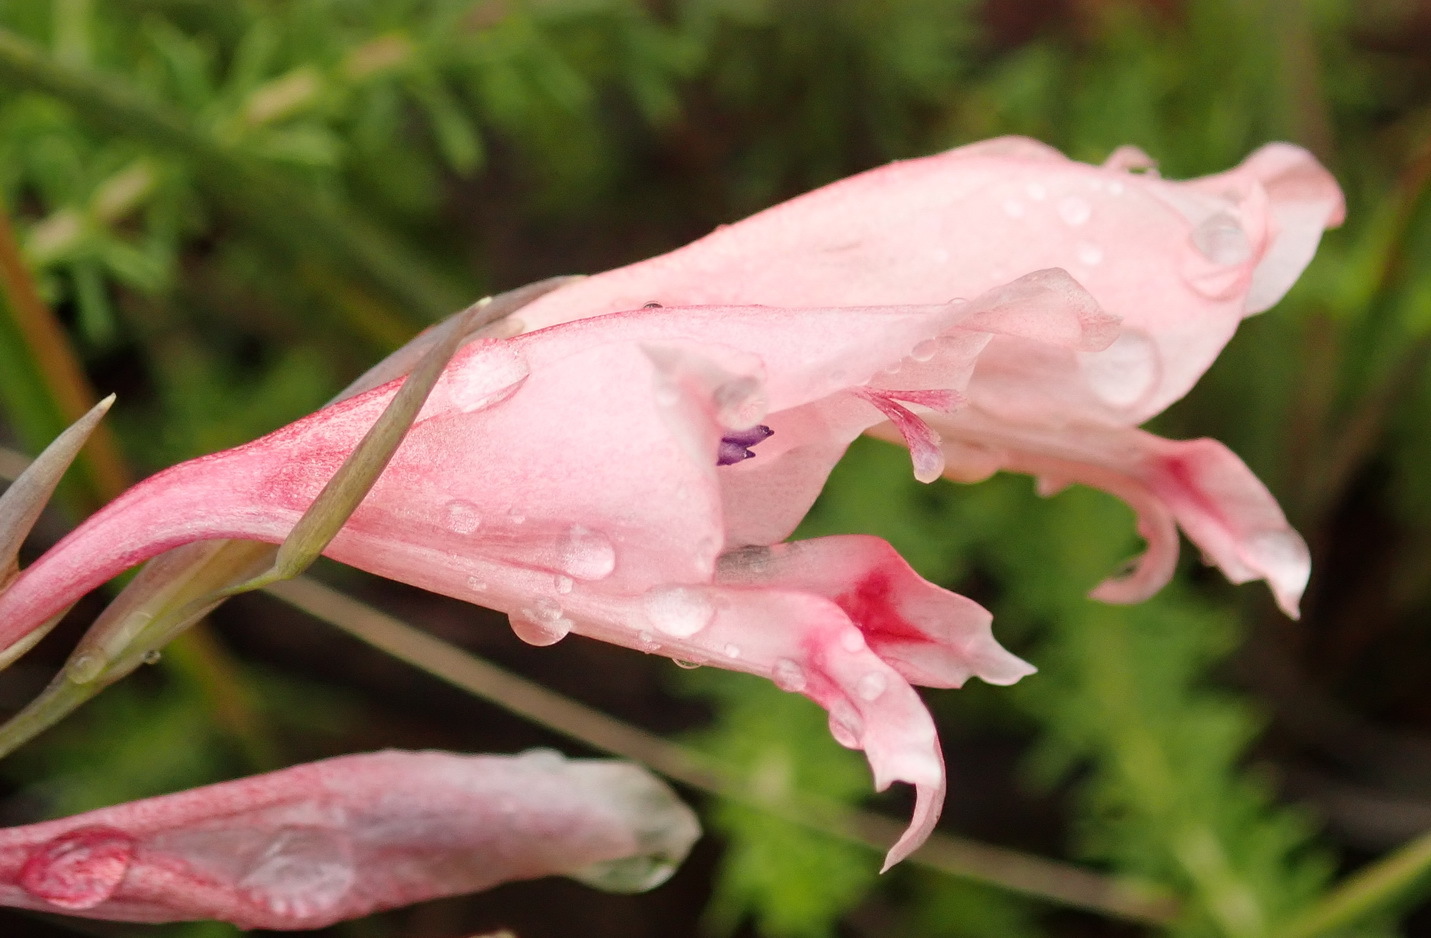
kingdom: Plantae
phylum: Tracheophyta
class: Liliopsida
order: Asparagales
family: Iridaceae
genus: Gladiolus
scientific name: Gladiolus nigromontanus
